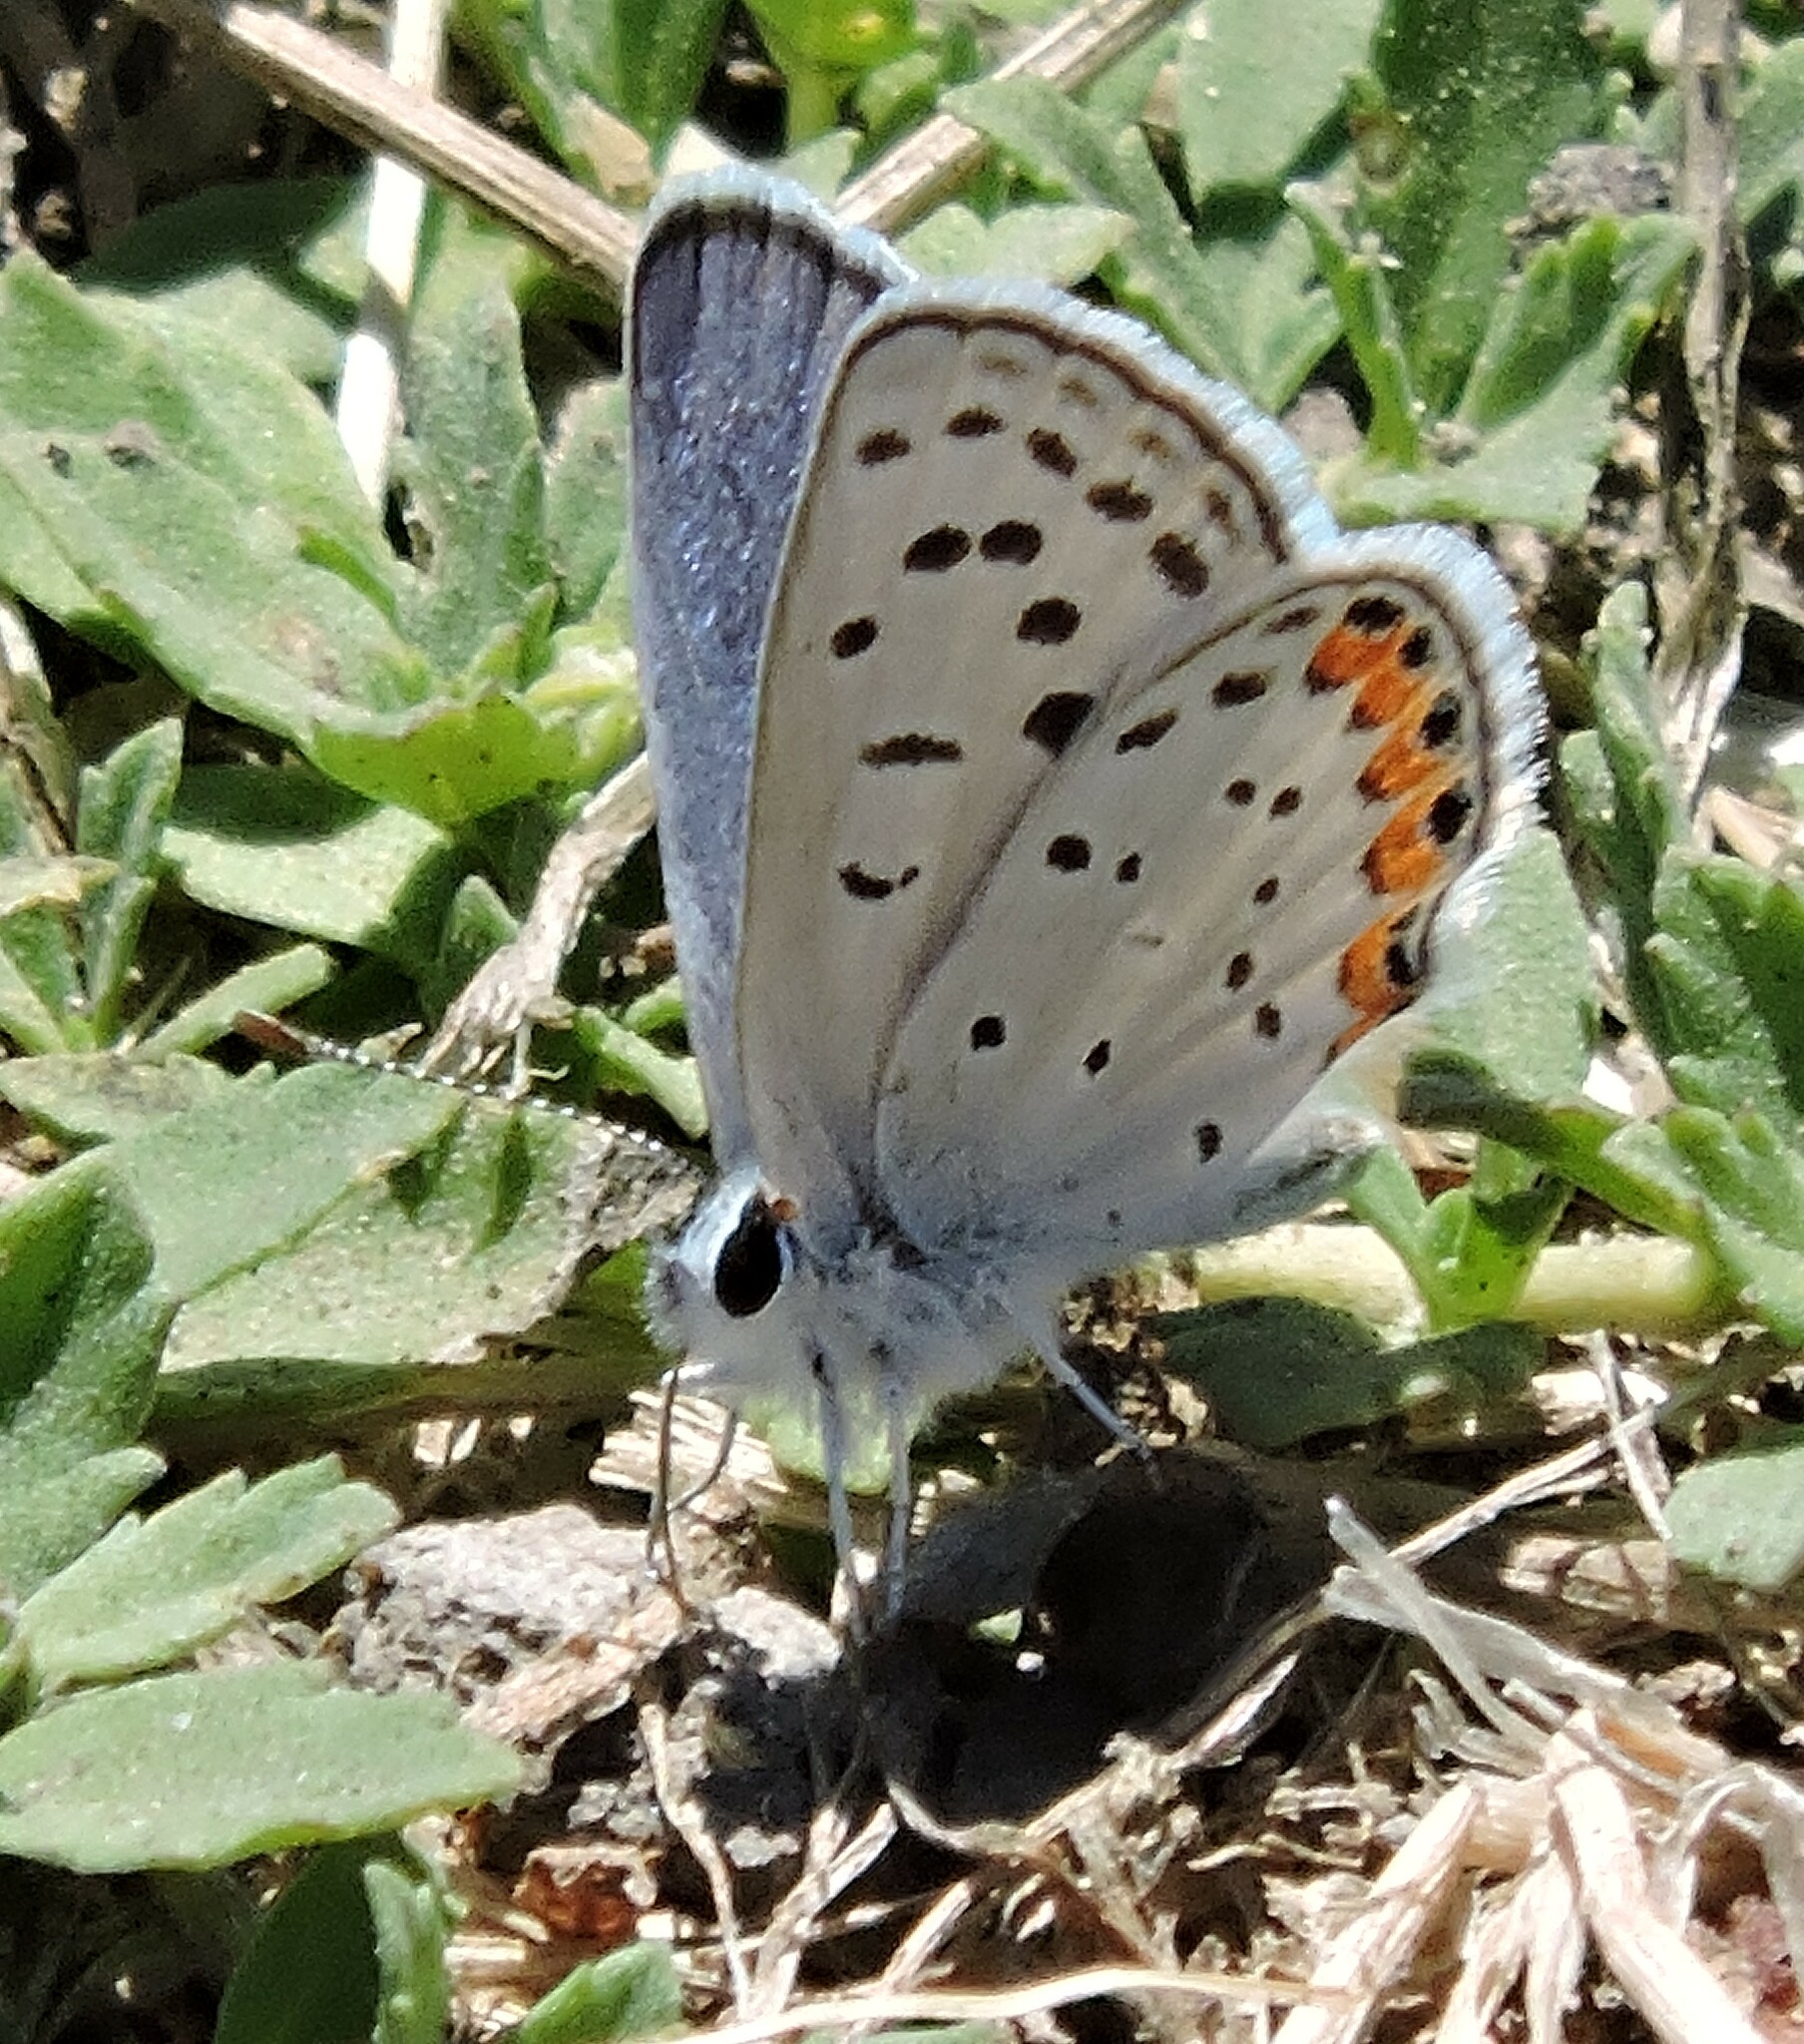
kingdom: Animalia
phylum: Arthropoda
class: Insecta
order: Lepidoptera
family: Lycaenidae
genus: Icaricia
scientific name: Icaricia acmon
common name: Acmon blue
